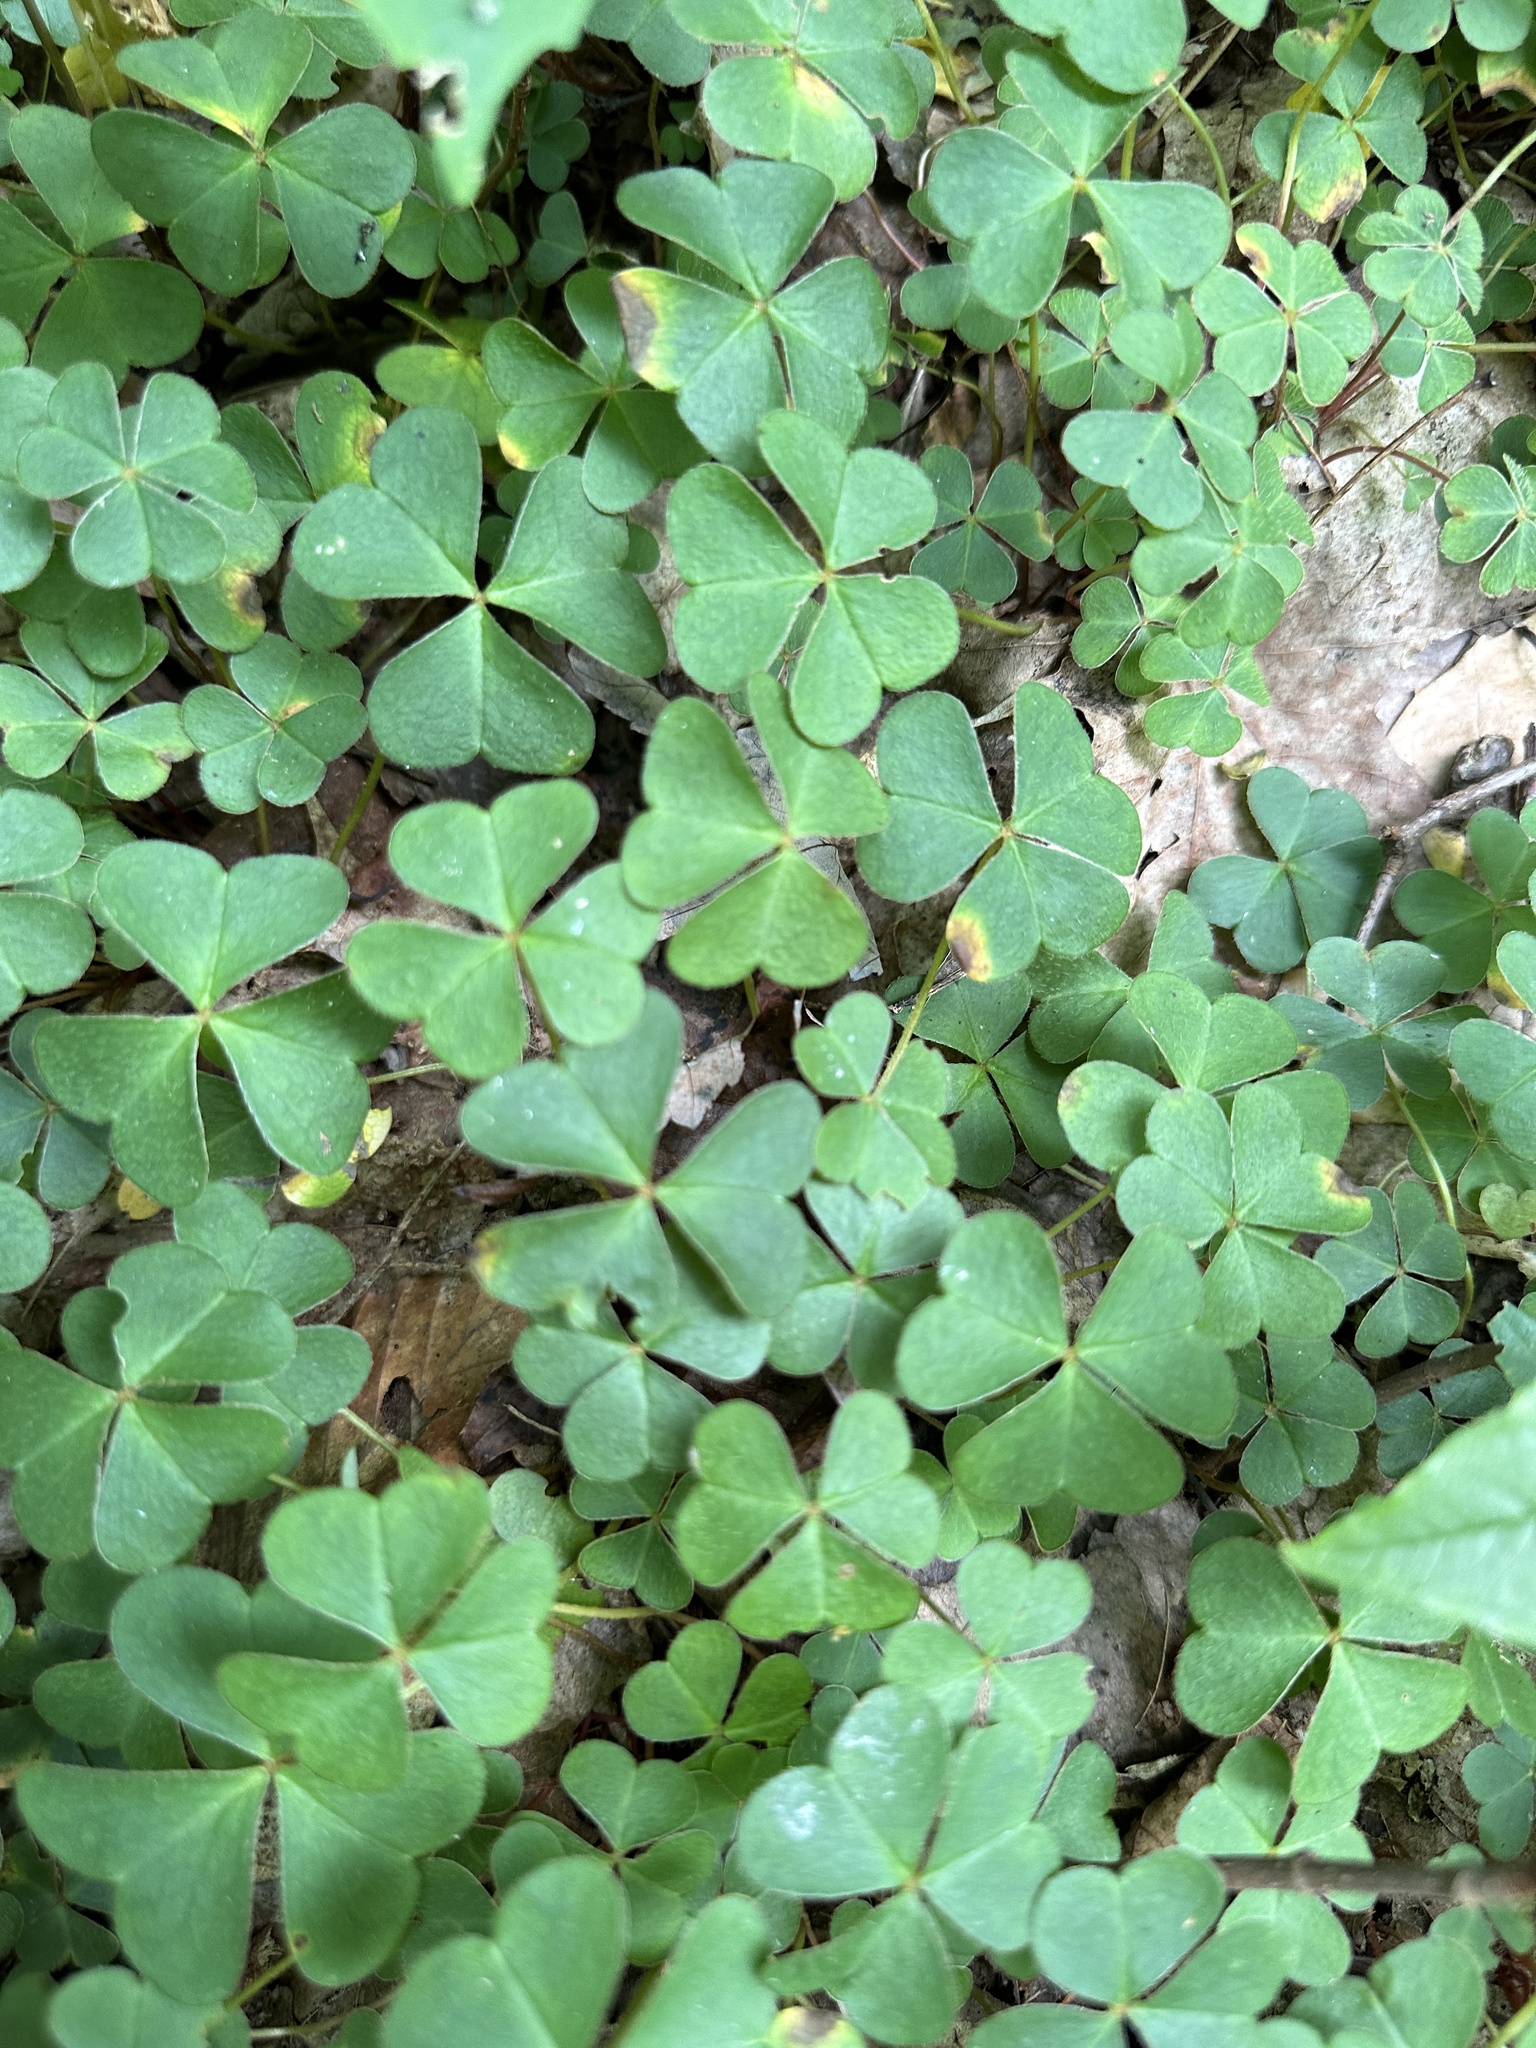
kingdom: Plantae
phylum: Tracheophyta
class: Magnoliopsida
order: Oxalidales
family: Oxalidaceae
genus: Oxalis
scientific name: Oxalis montana
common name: American wood-sorrel
